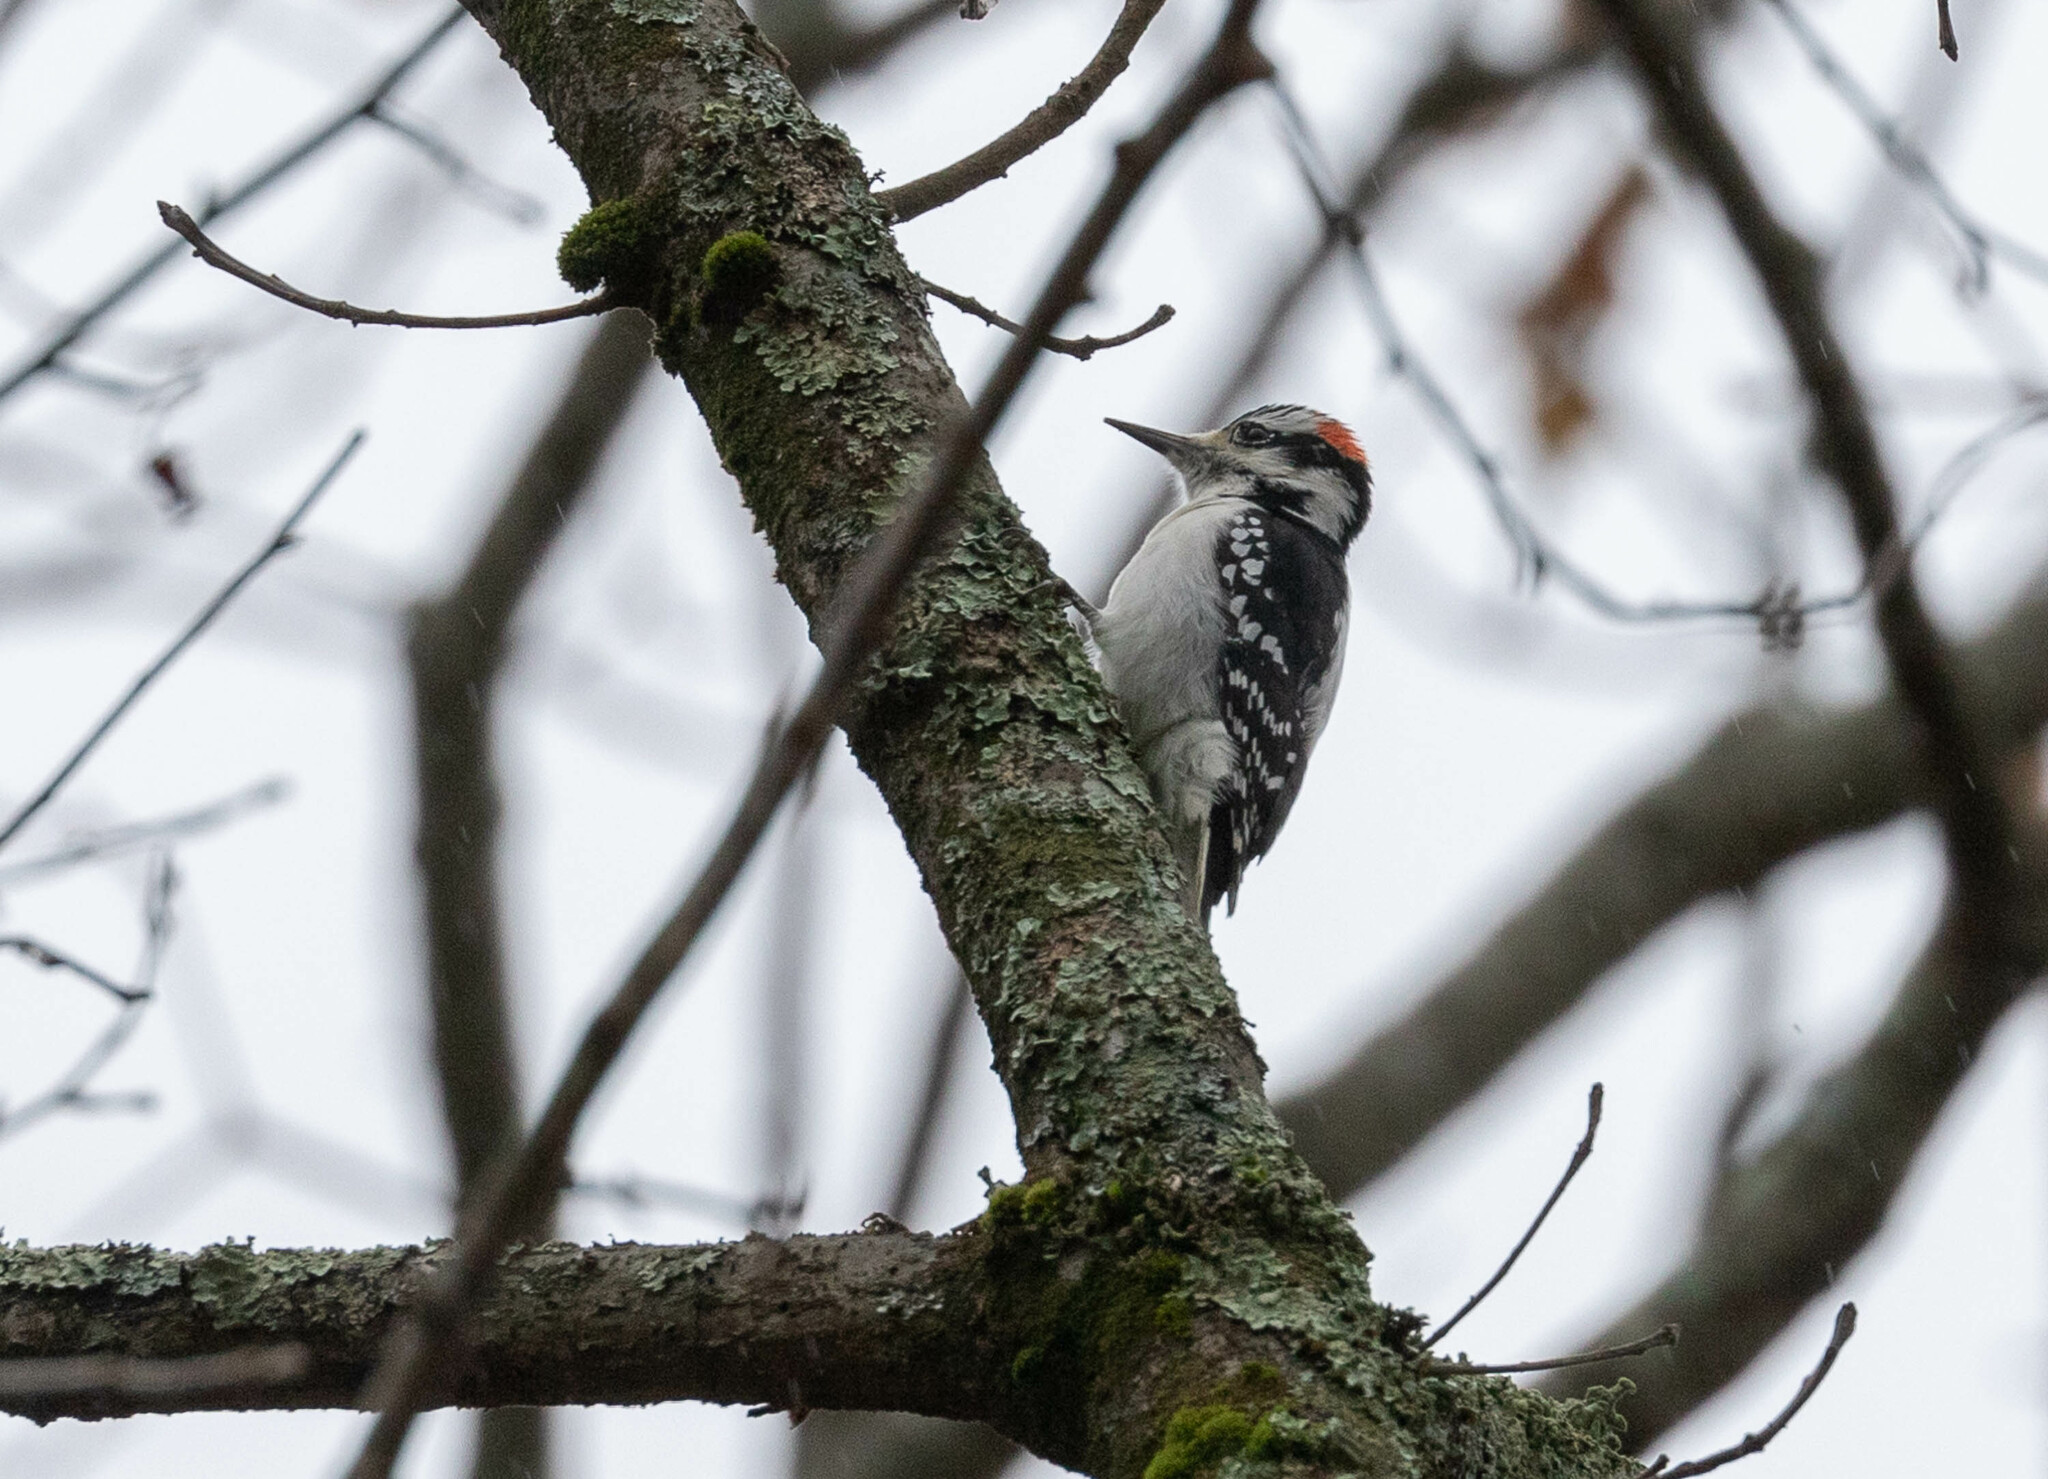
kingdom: Animalia
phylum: Chordata
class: Aves
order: Piciformes
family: Picidae
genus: Leuconotopicus
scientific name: Leuconotopicus villosus
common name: Hairy woodpecker
